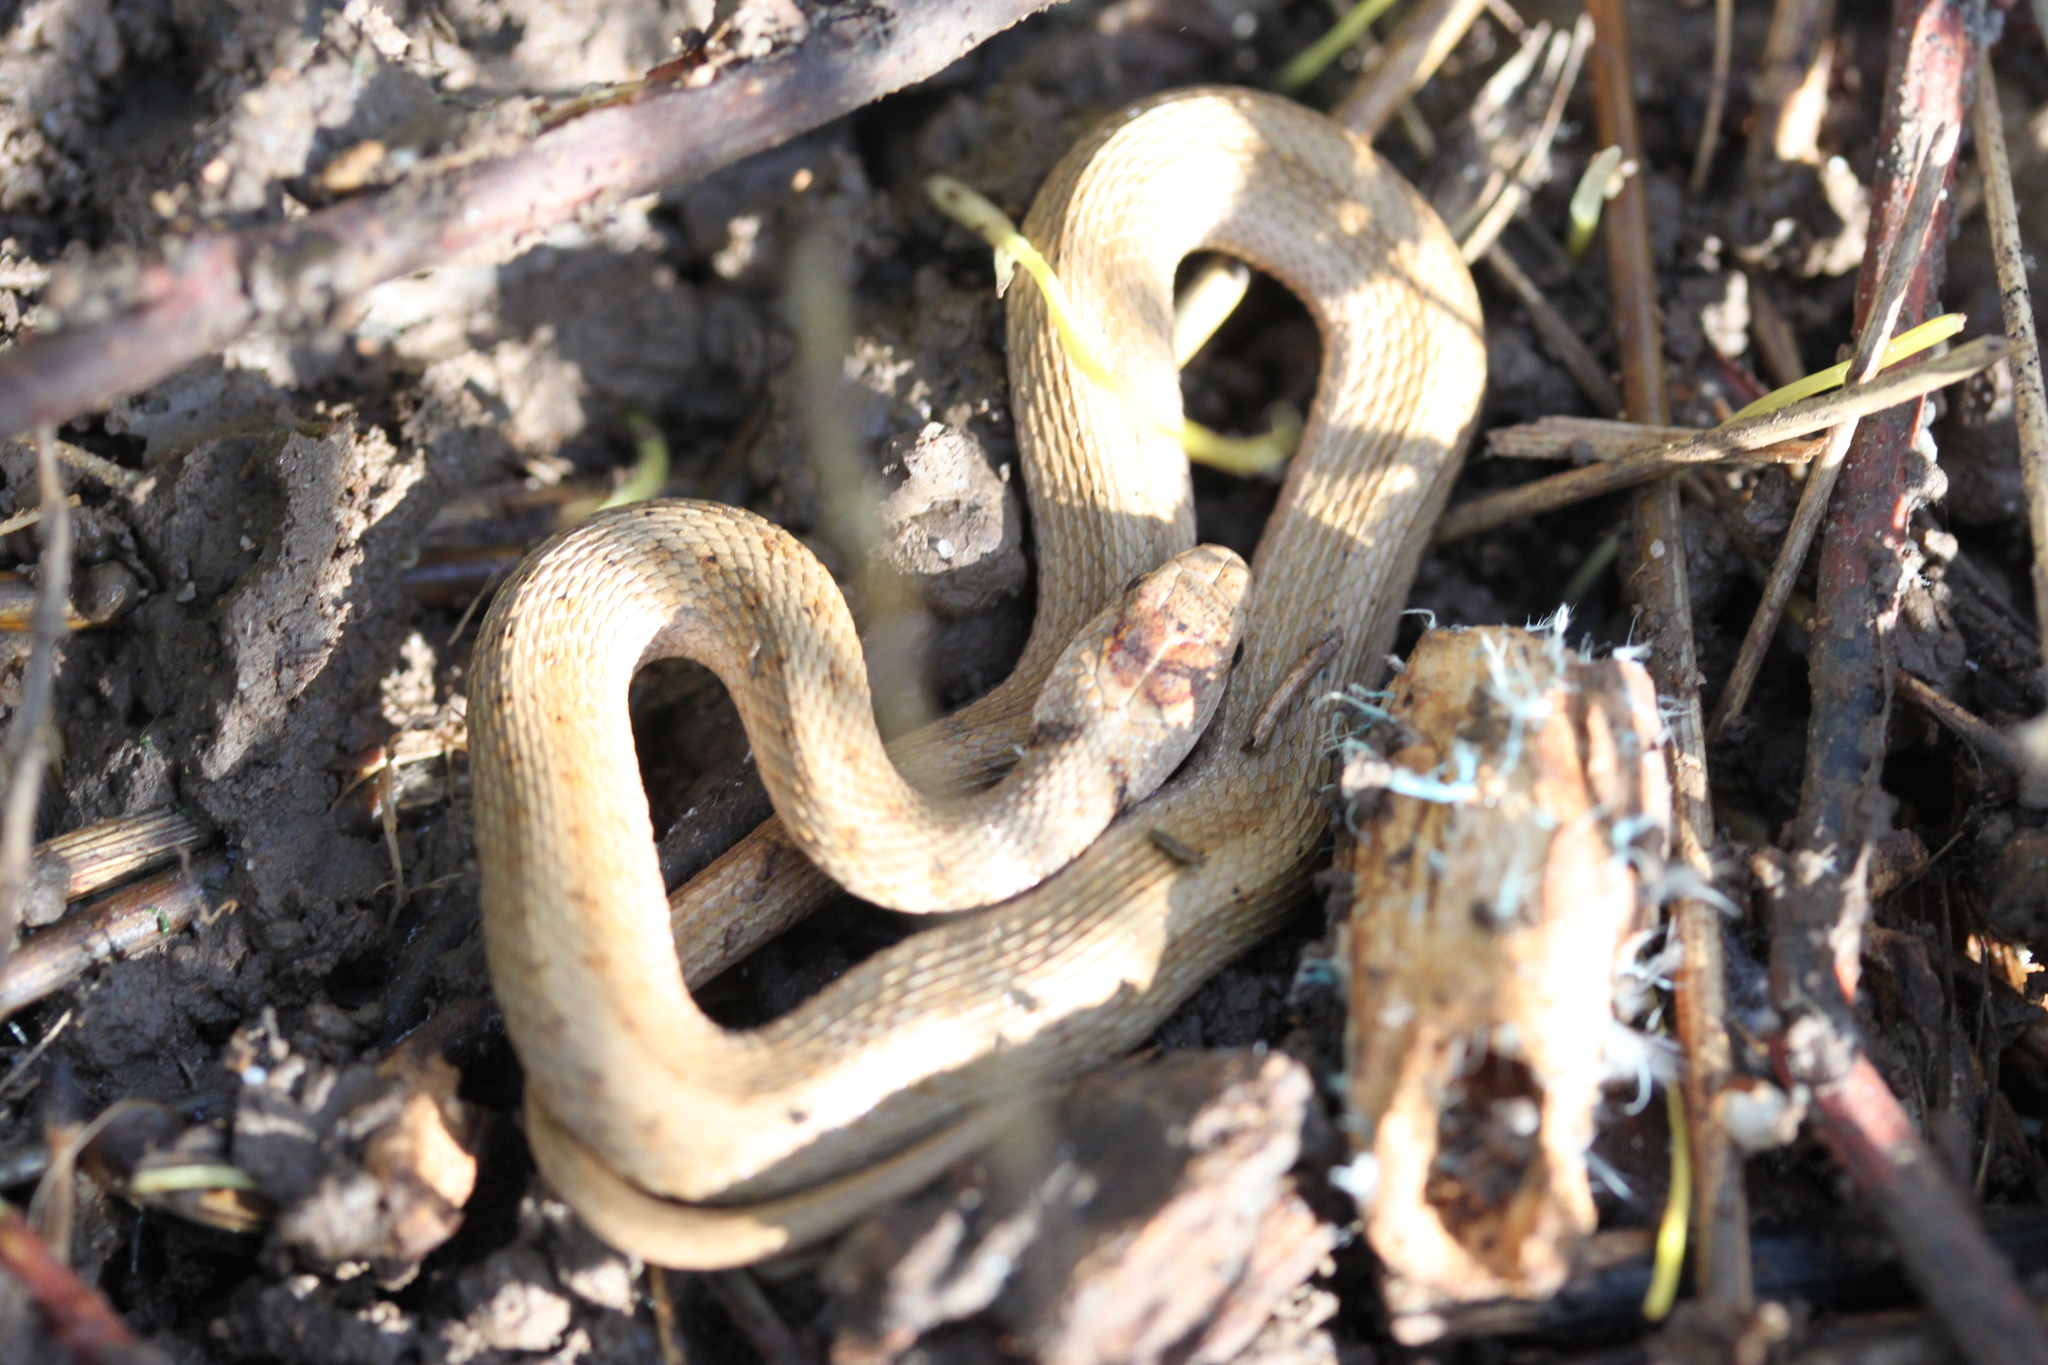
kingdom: Animalia
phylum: Chordata
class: Squamata
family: Colubridae
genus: Storeria
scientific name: Storeria dekayi
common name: (dekay’s) brown snake
